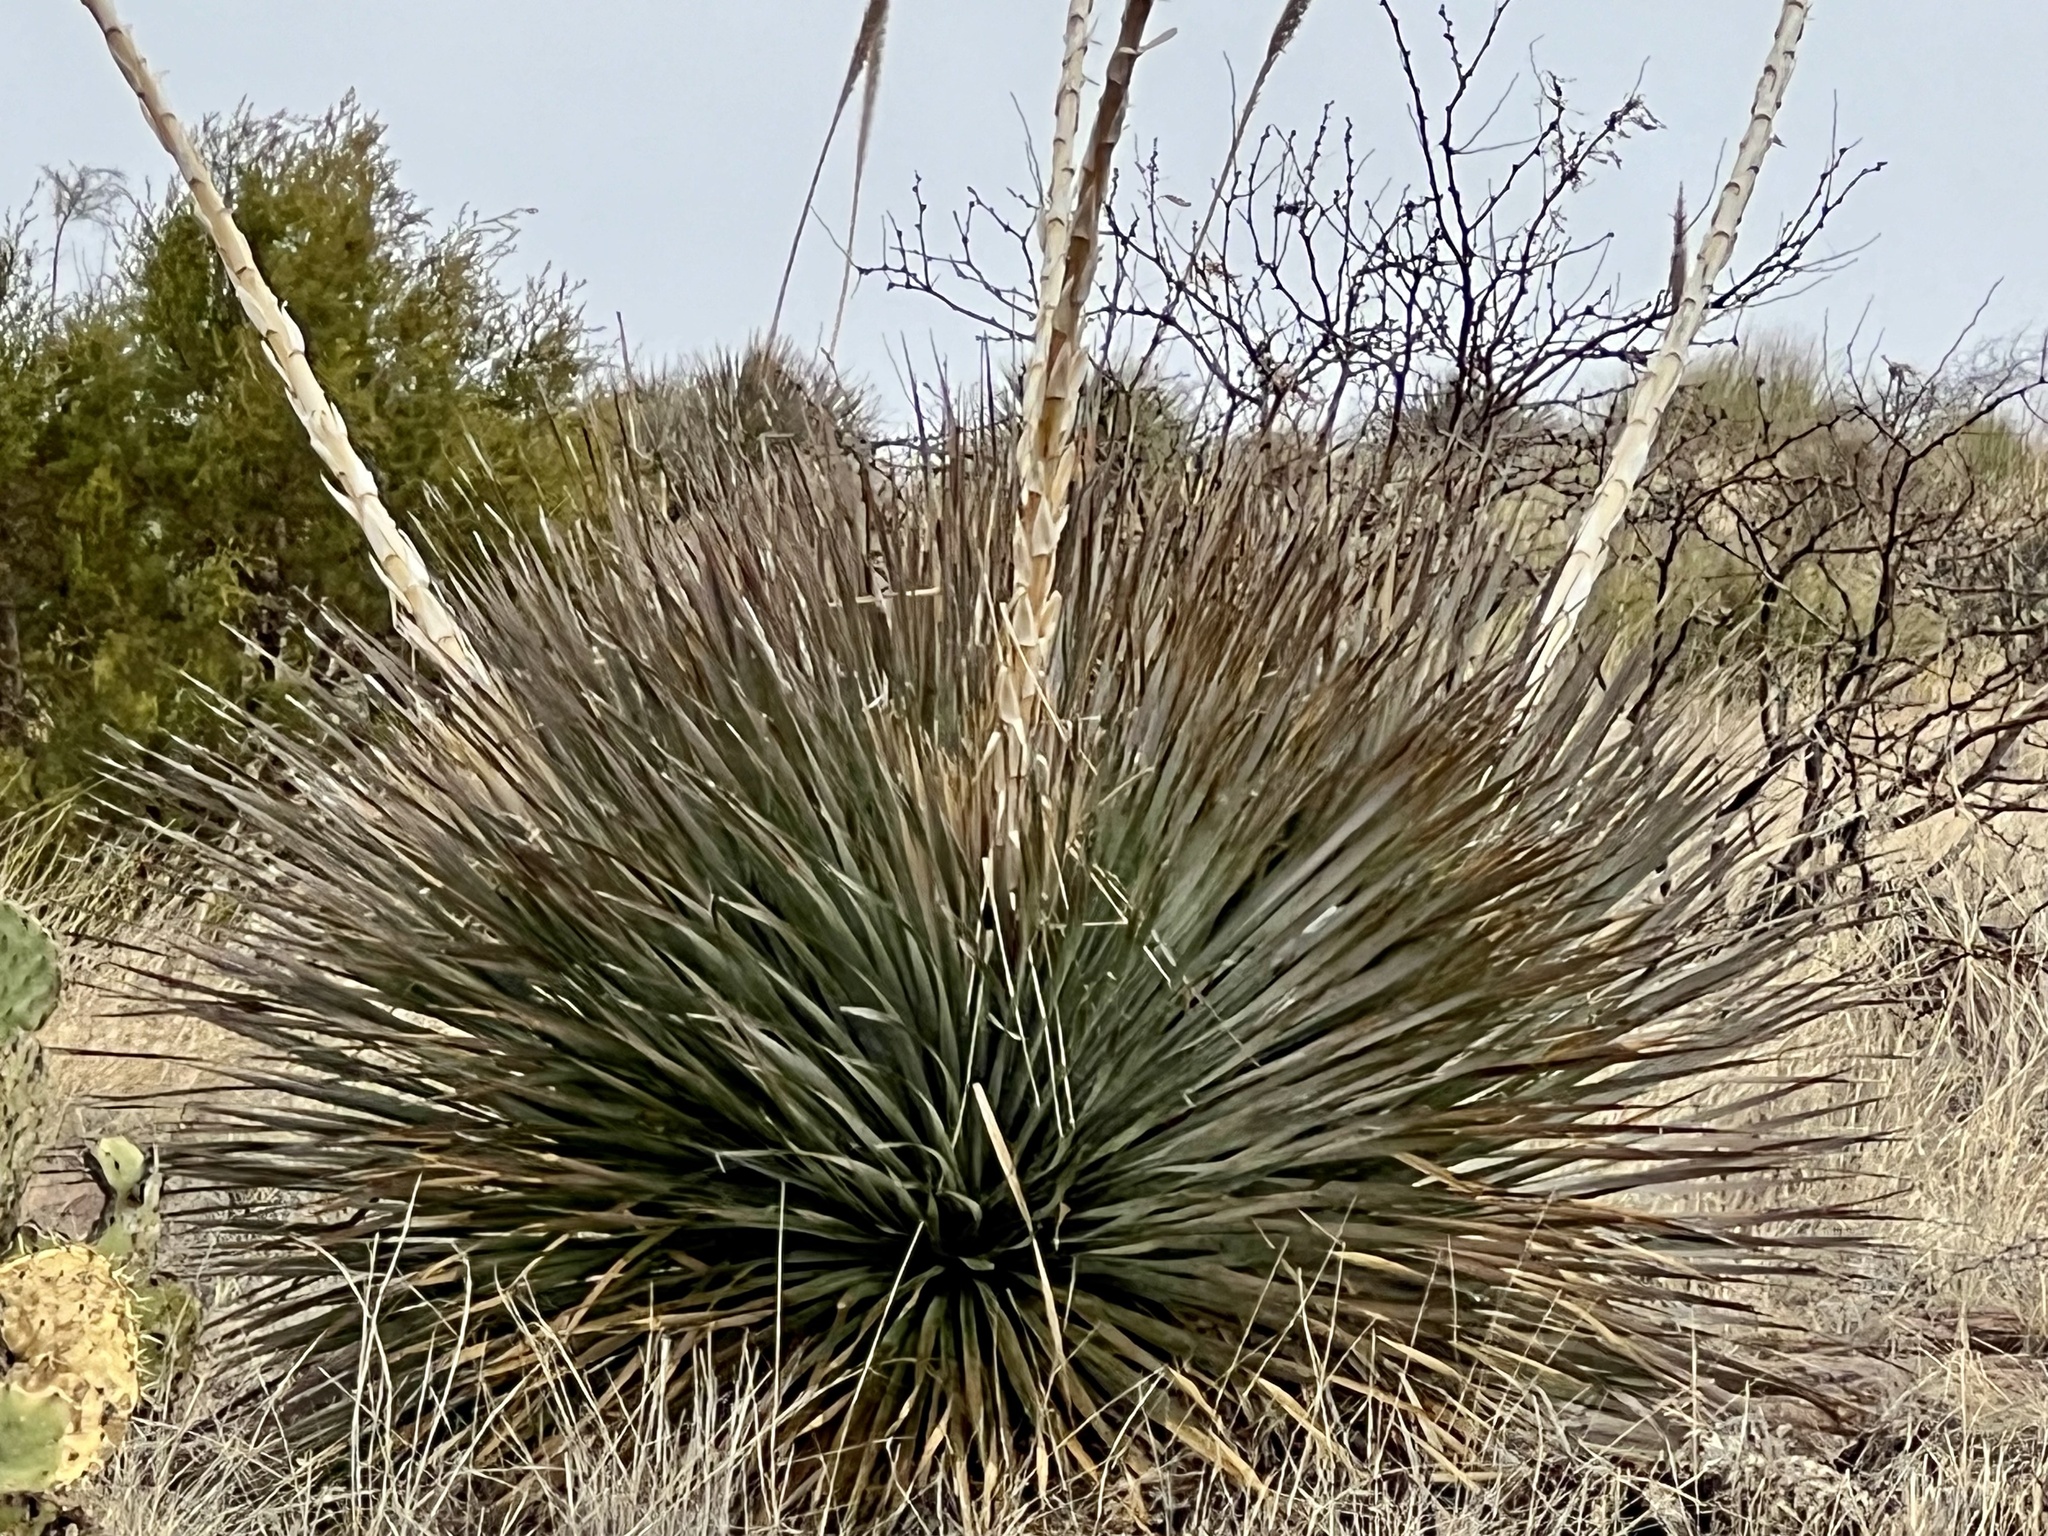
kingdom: Plantae
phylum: Tracheophyta
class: Liliopsida
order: Asparagales
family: Asparagaceae
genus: Dasylirion
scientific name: Dasylirion wheeleri
